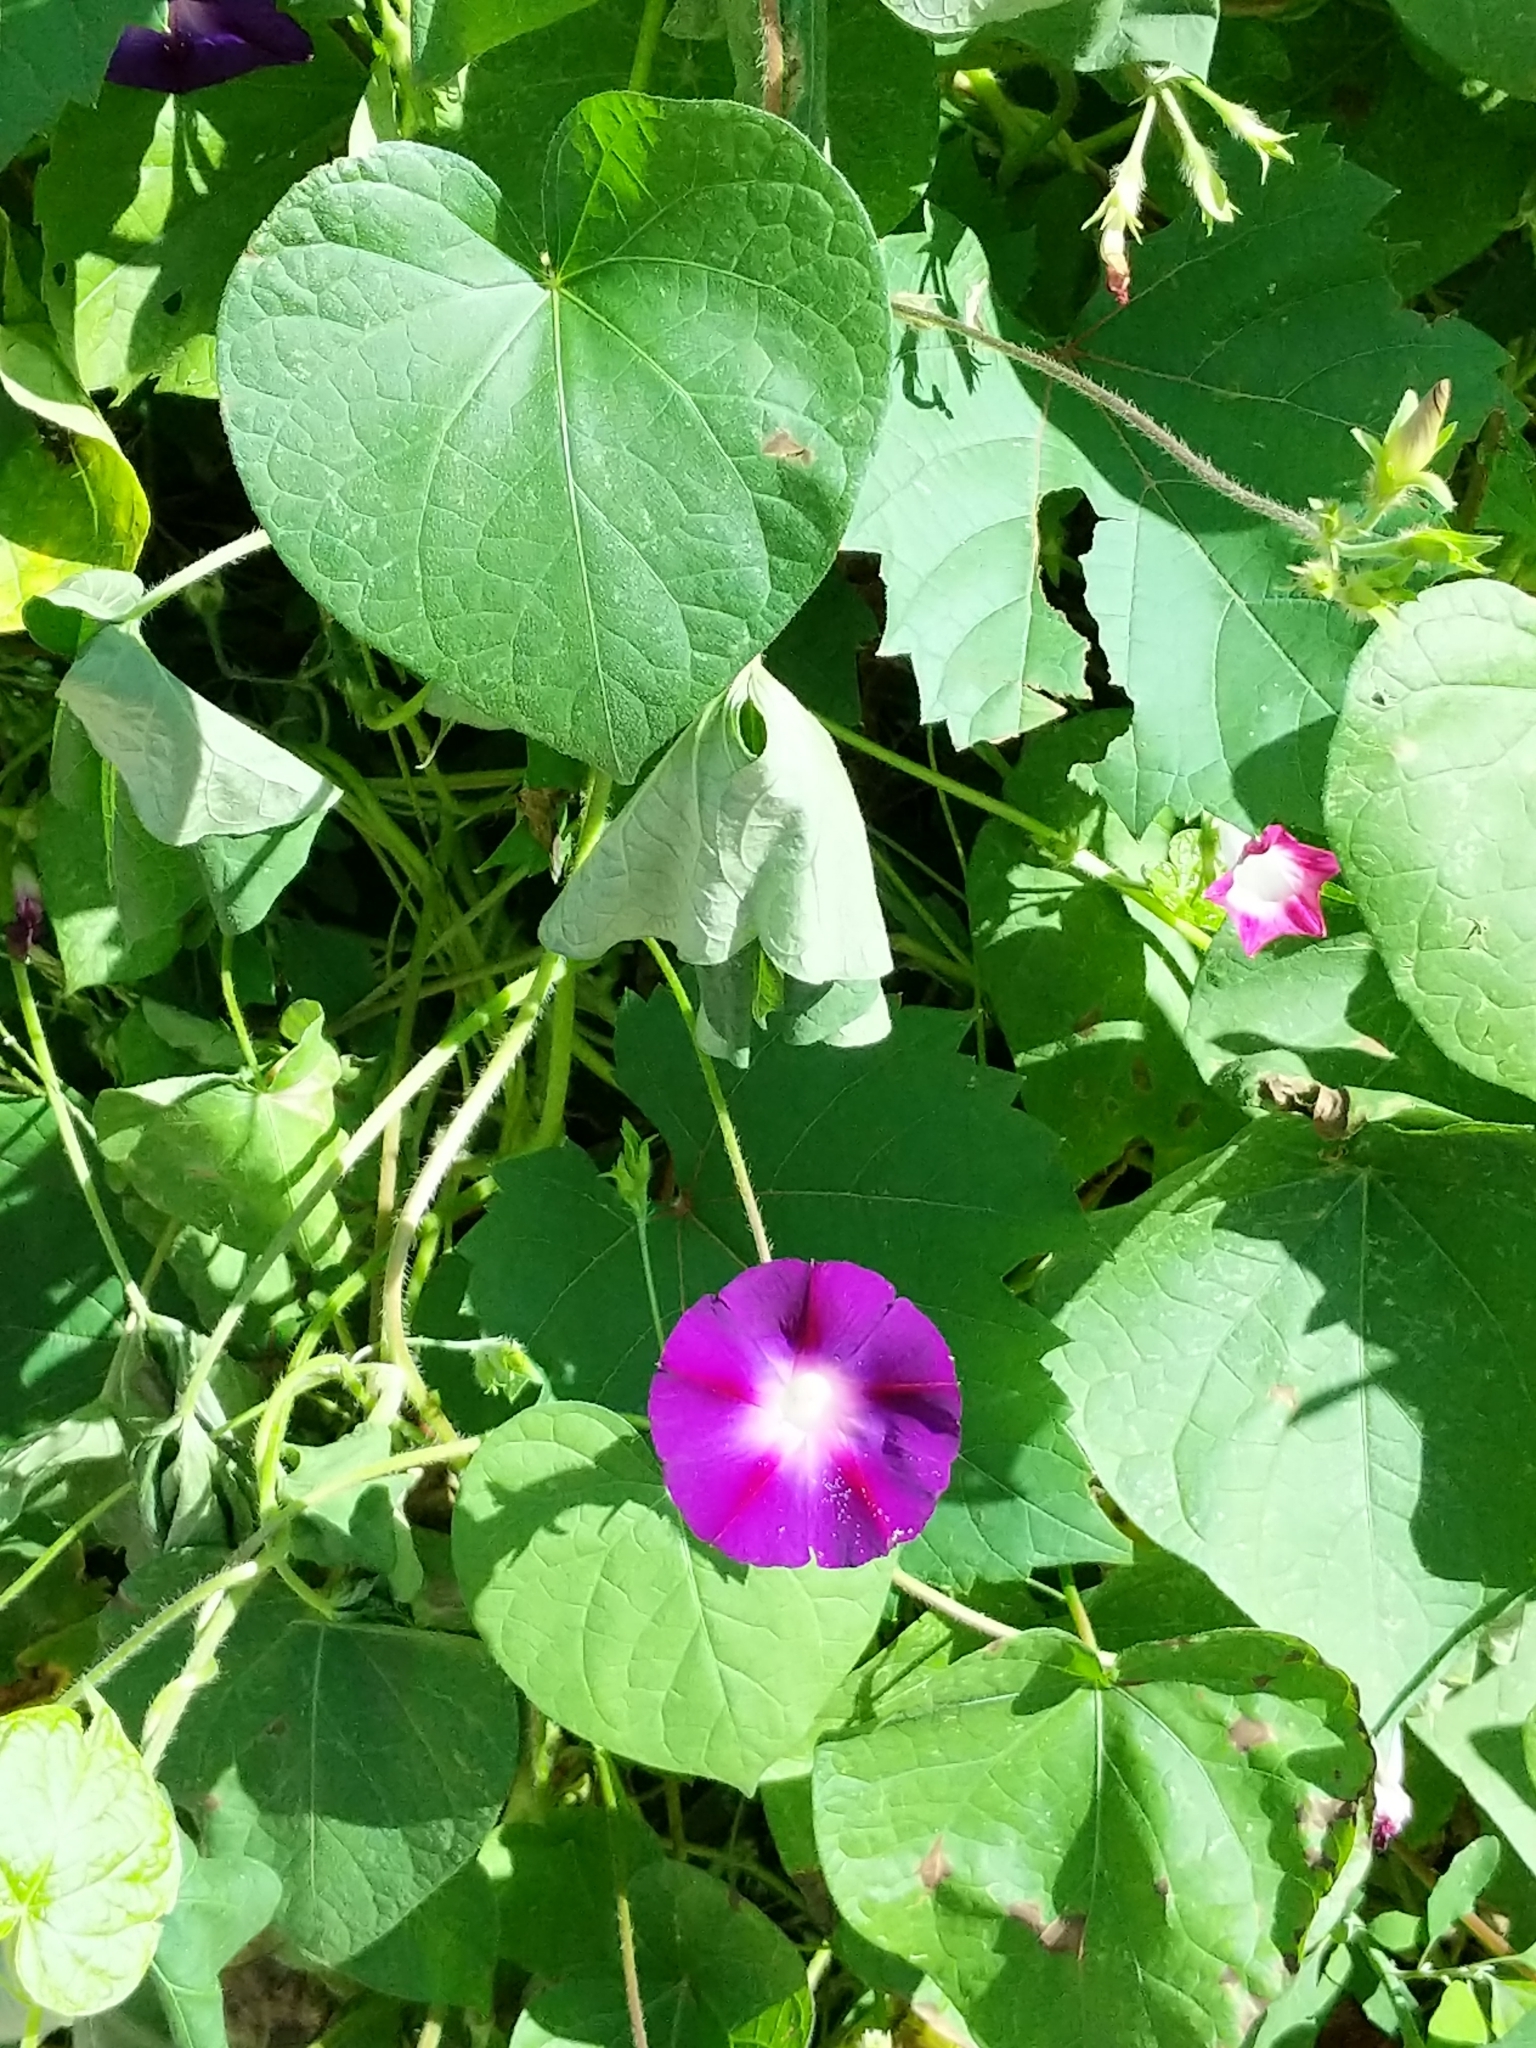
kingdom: Plantae
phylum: Tracheophyta
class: Magnoliopsida
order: Solanales
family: Convolvulaceae
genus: Ipomoea
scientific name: Ipomoea purpurea
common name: Common morning-glory
